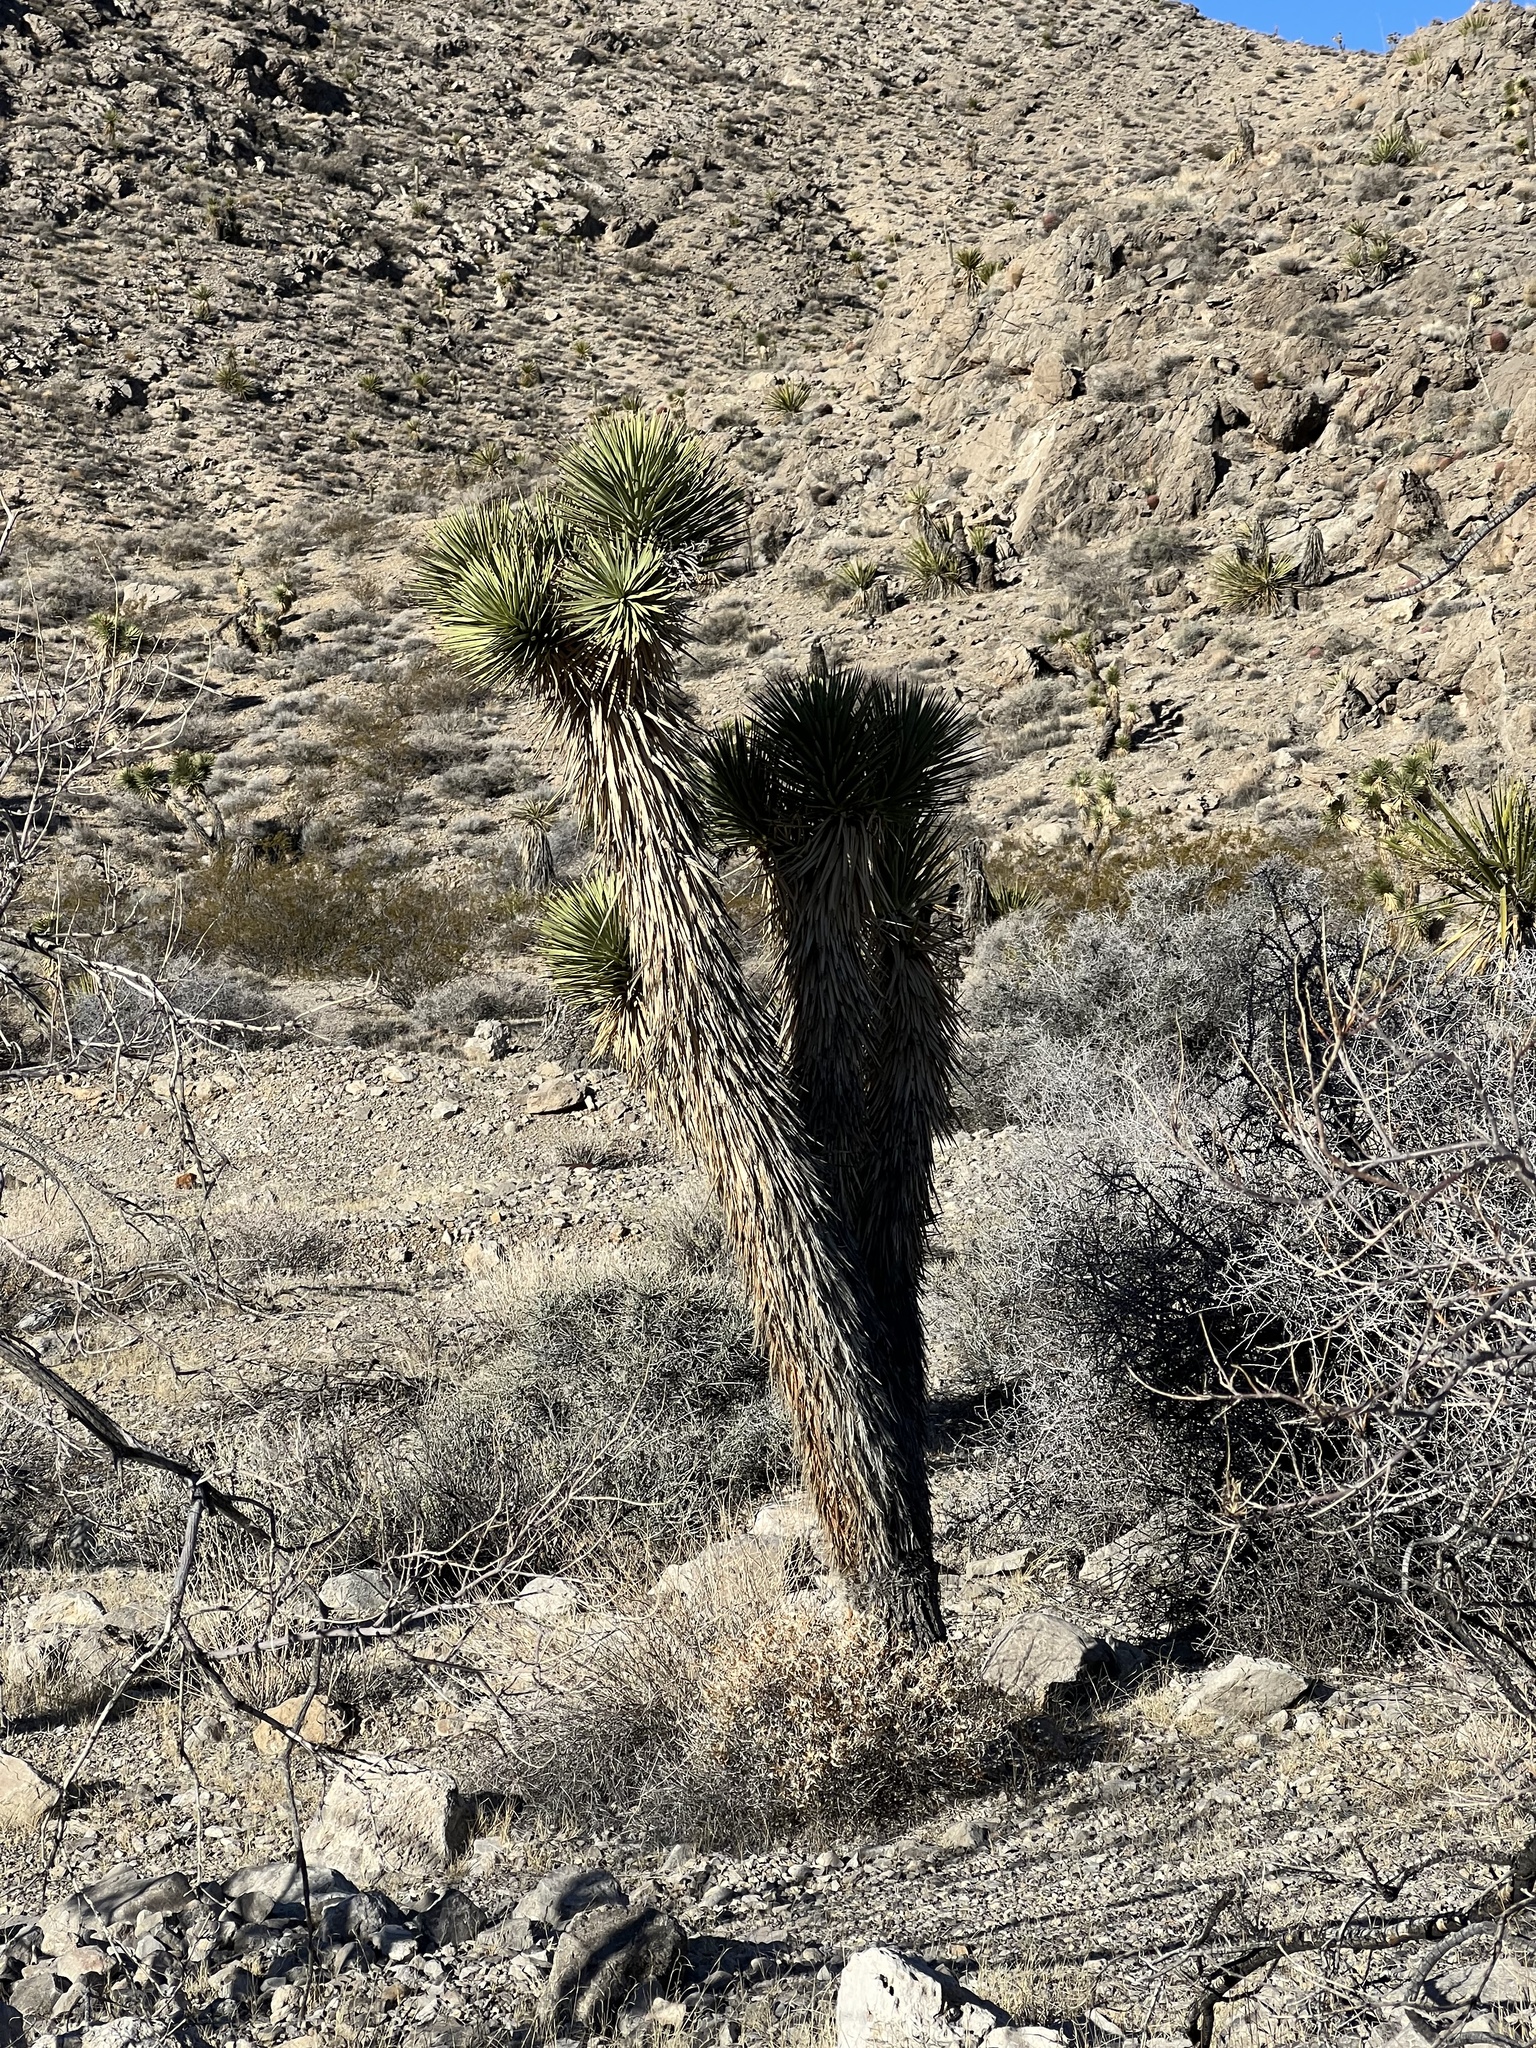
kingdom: Plantae
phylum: Tracheophyta
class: Liliopsida
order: Asparagales
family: Asparagaceae
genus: Yucca
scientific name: Yucca brevifolia
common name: Joshua tree
